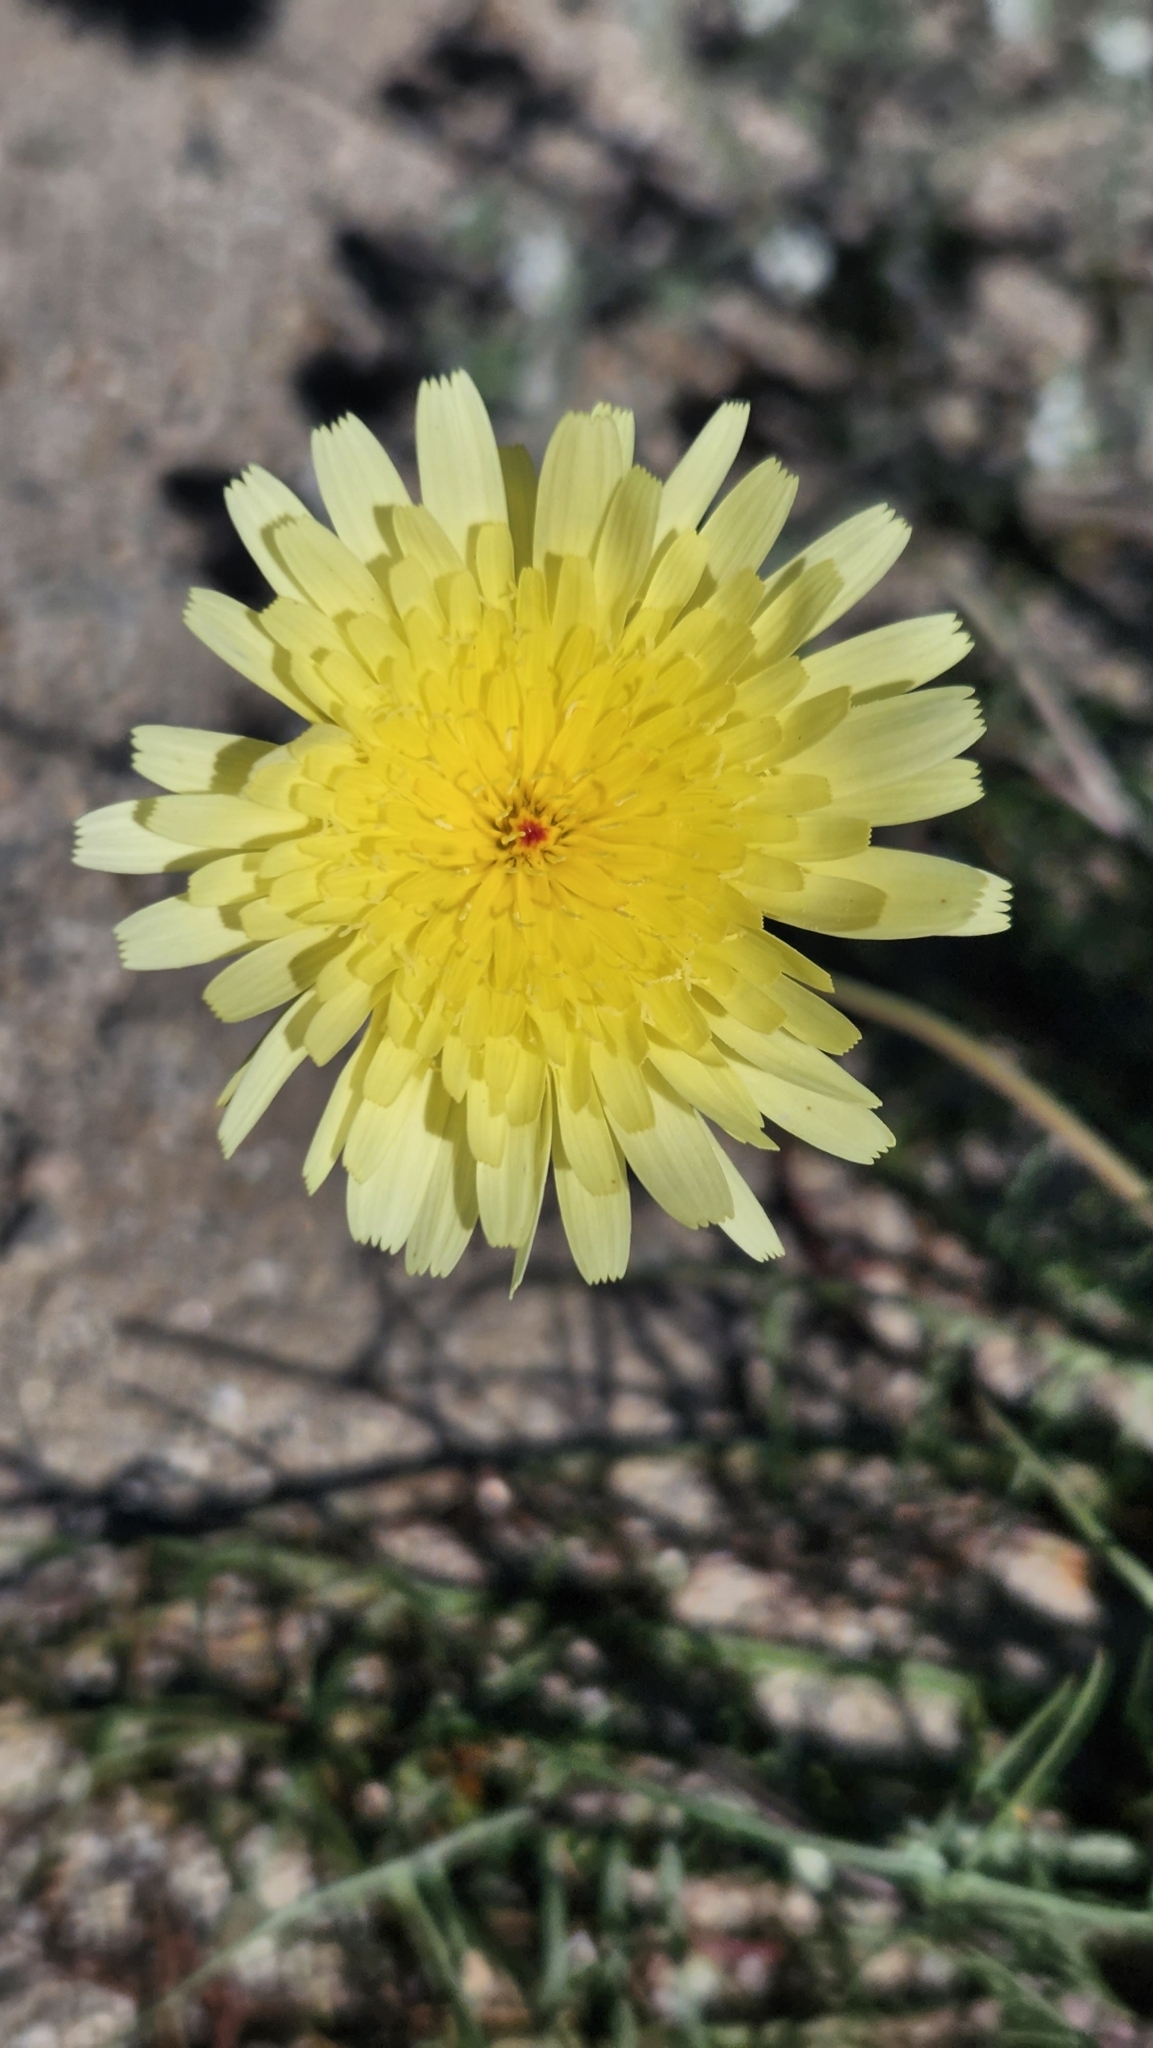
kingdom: Plantae
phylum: Tracheophyta
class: Magnoliopsida
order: Asterales
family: Asteraceae
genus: Malacothrix
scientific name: Malacothrix glabrata
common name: Smooth desert-dandelion
